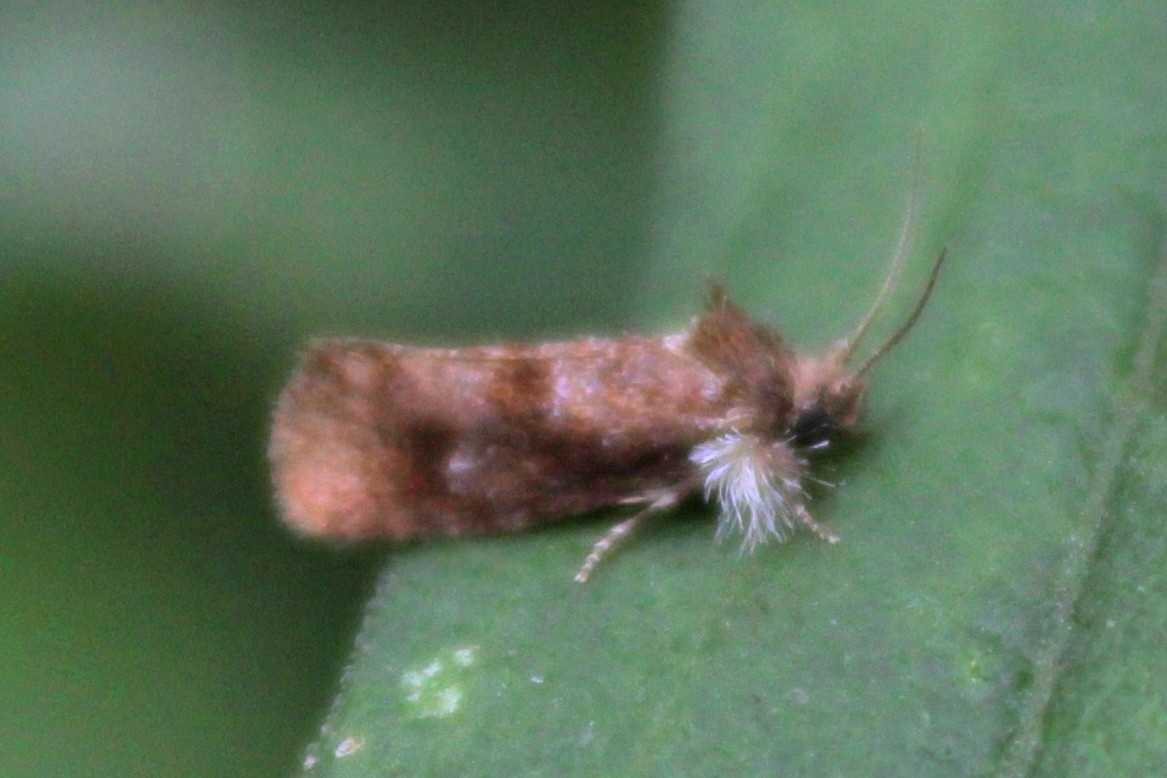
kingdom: Animalia
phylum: Arthropoda
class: Insecta
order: Lepidoptera
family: Tineidae
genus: Acrolophus
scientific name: Acrolophus panamae
